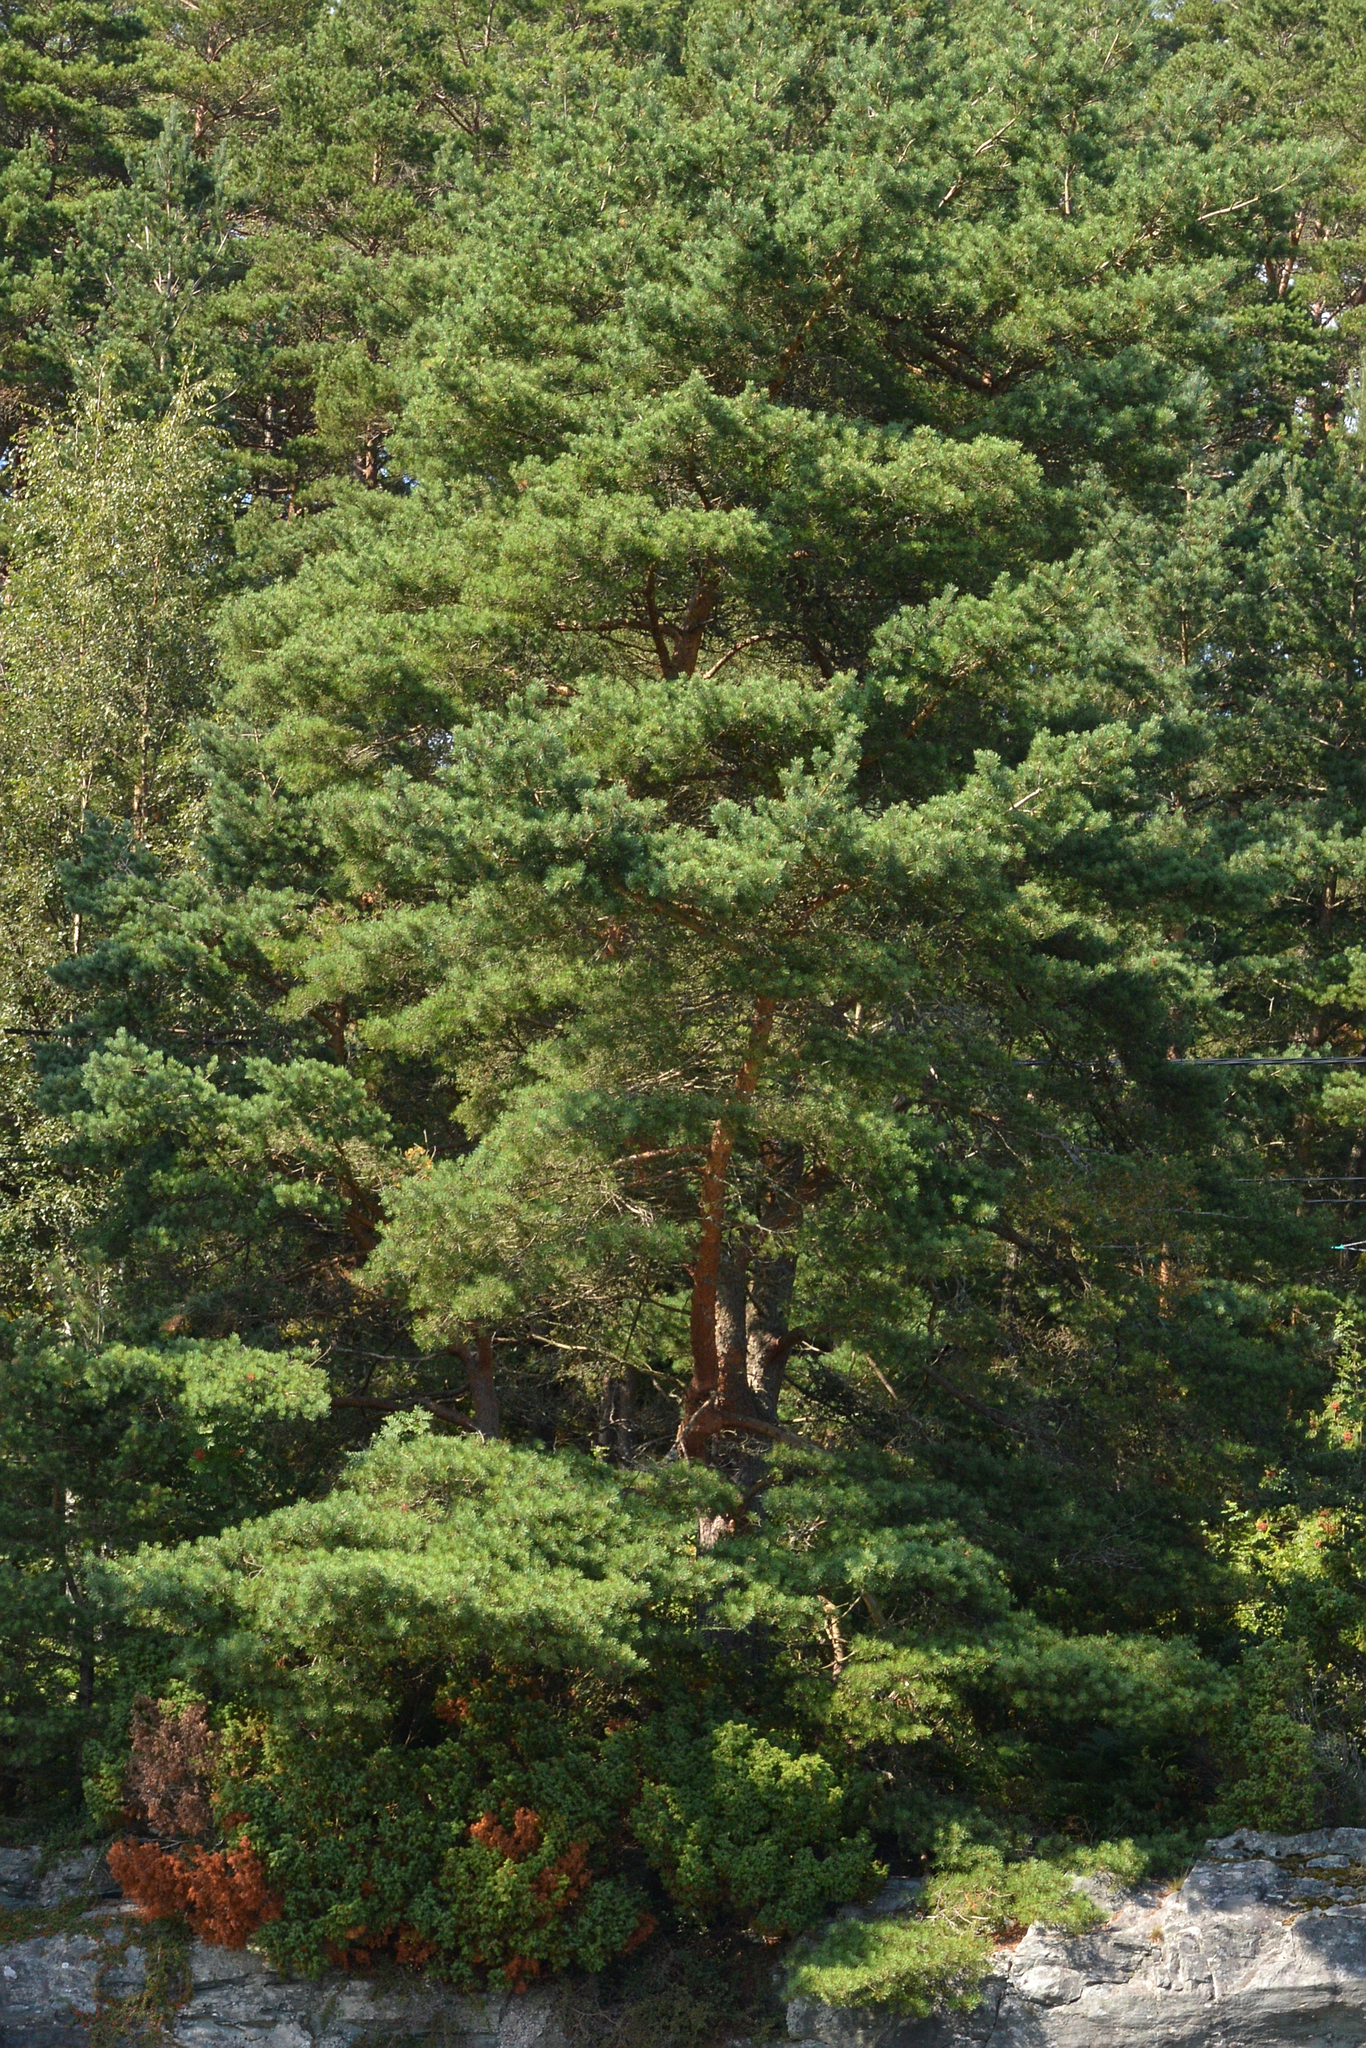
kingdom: Plantae
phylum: Tracheophyta
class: Pinopsida
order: Pinales
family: Pinaceae
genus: Pinus
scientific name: Pinus sylvestris
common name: Scots pine
